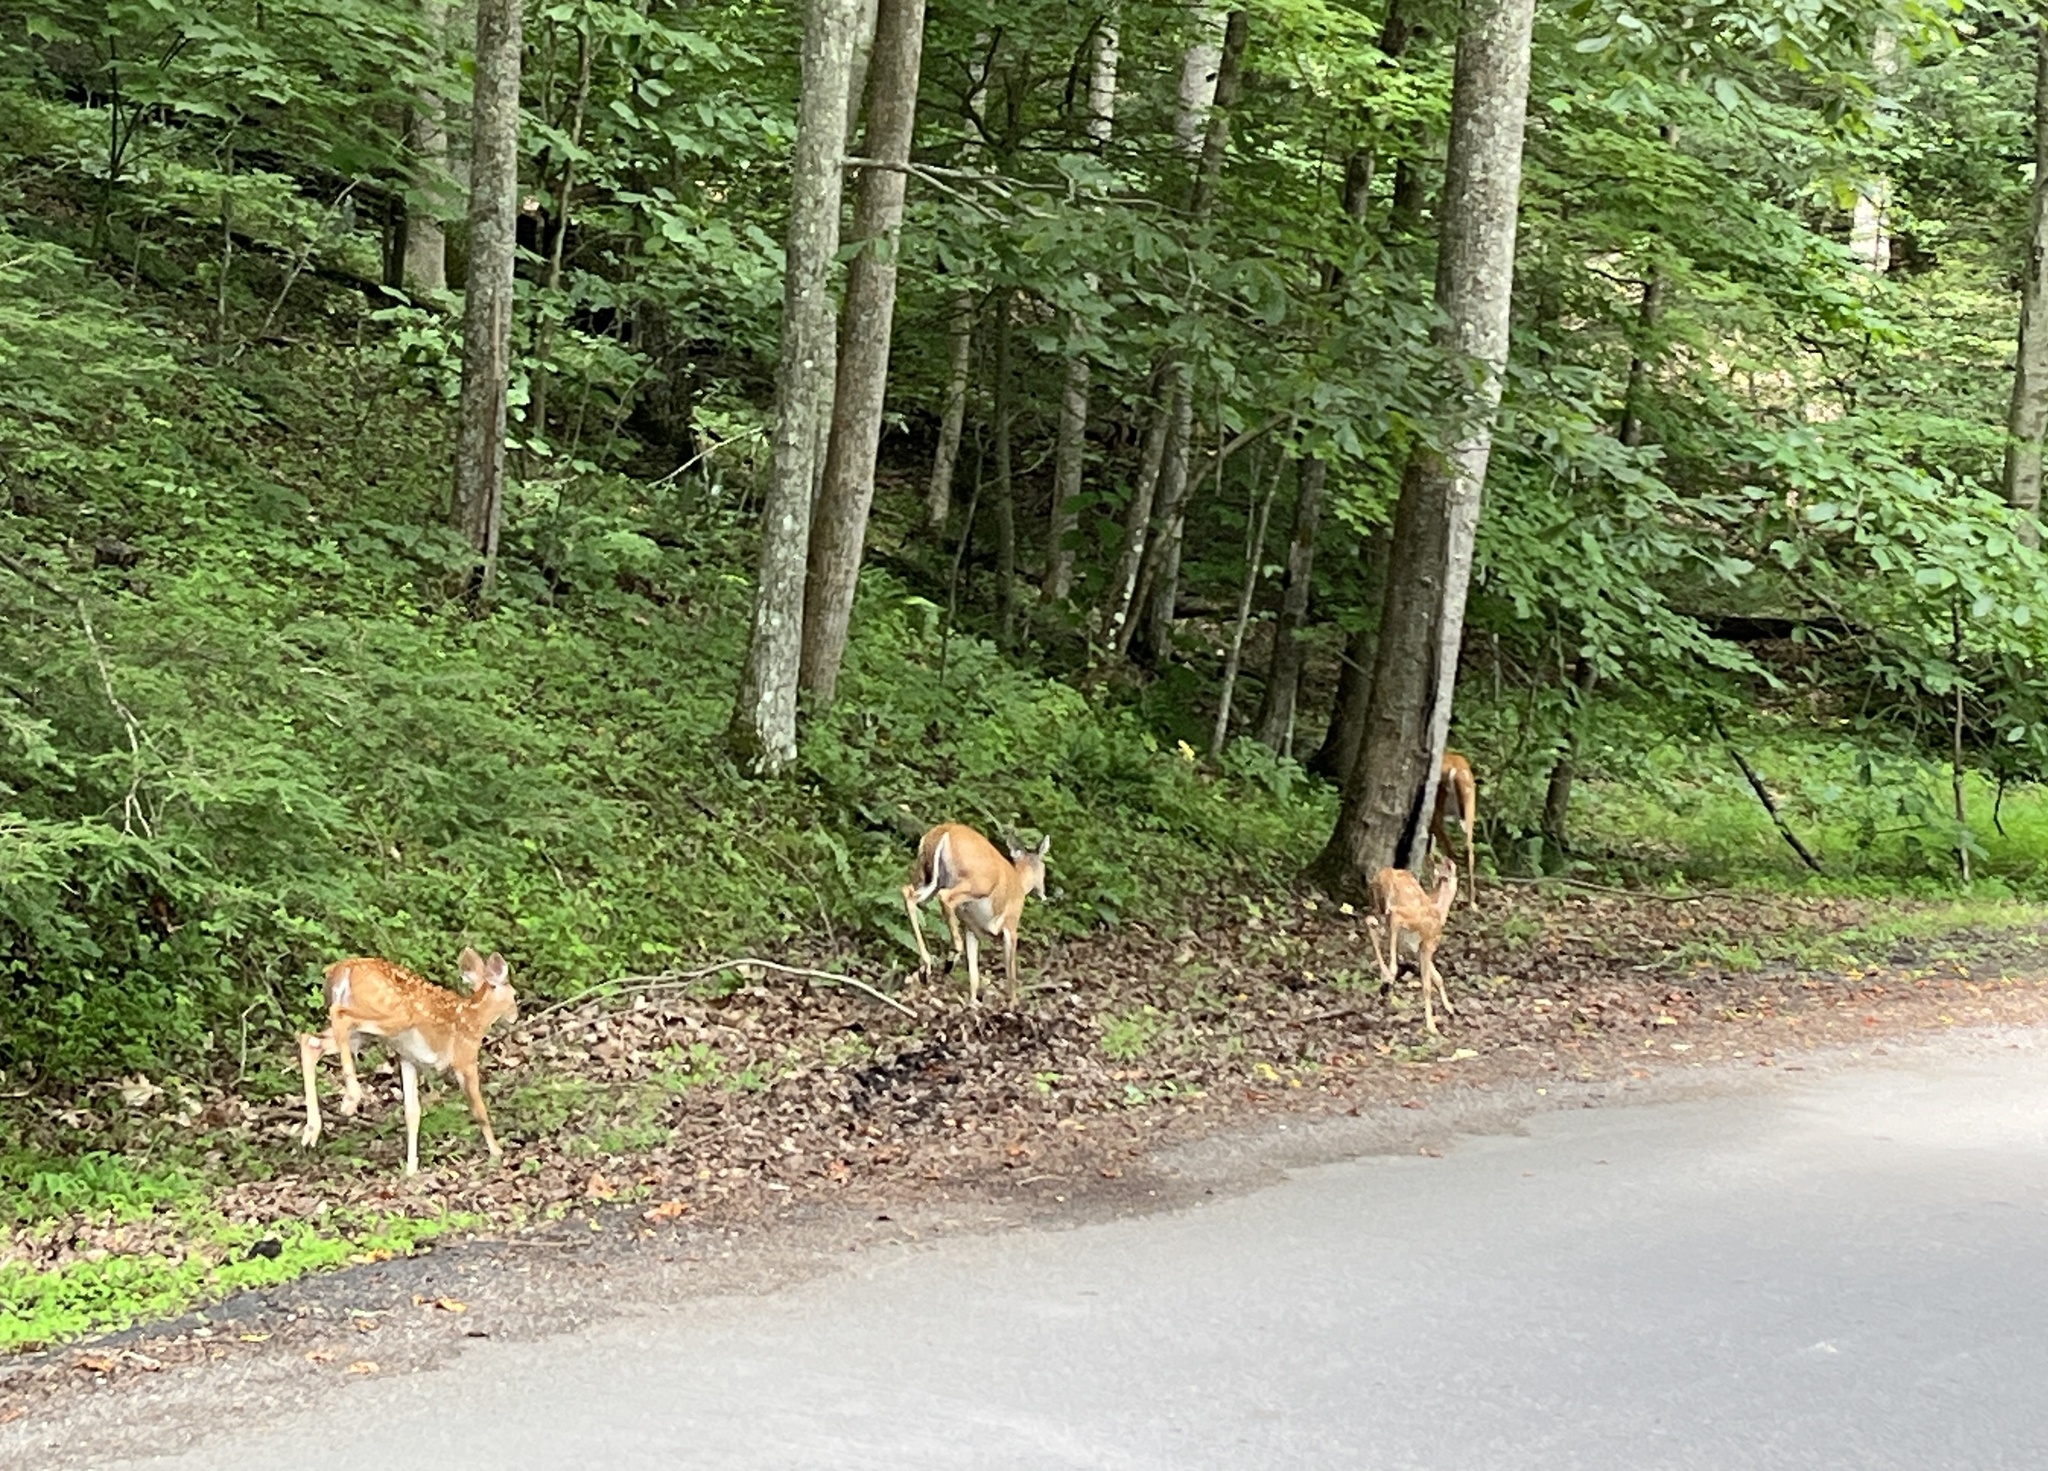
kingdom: Animalia
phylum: Chordata
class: Mammalia
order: Artiodactyla
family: Cervidae
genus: Odocoileus
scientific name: Odocoileus virginianus
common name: White-tailed deer
